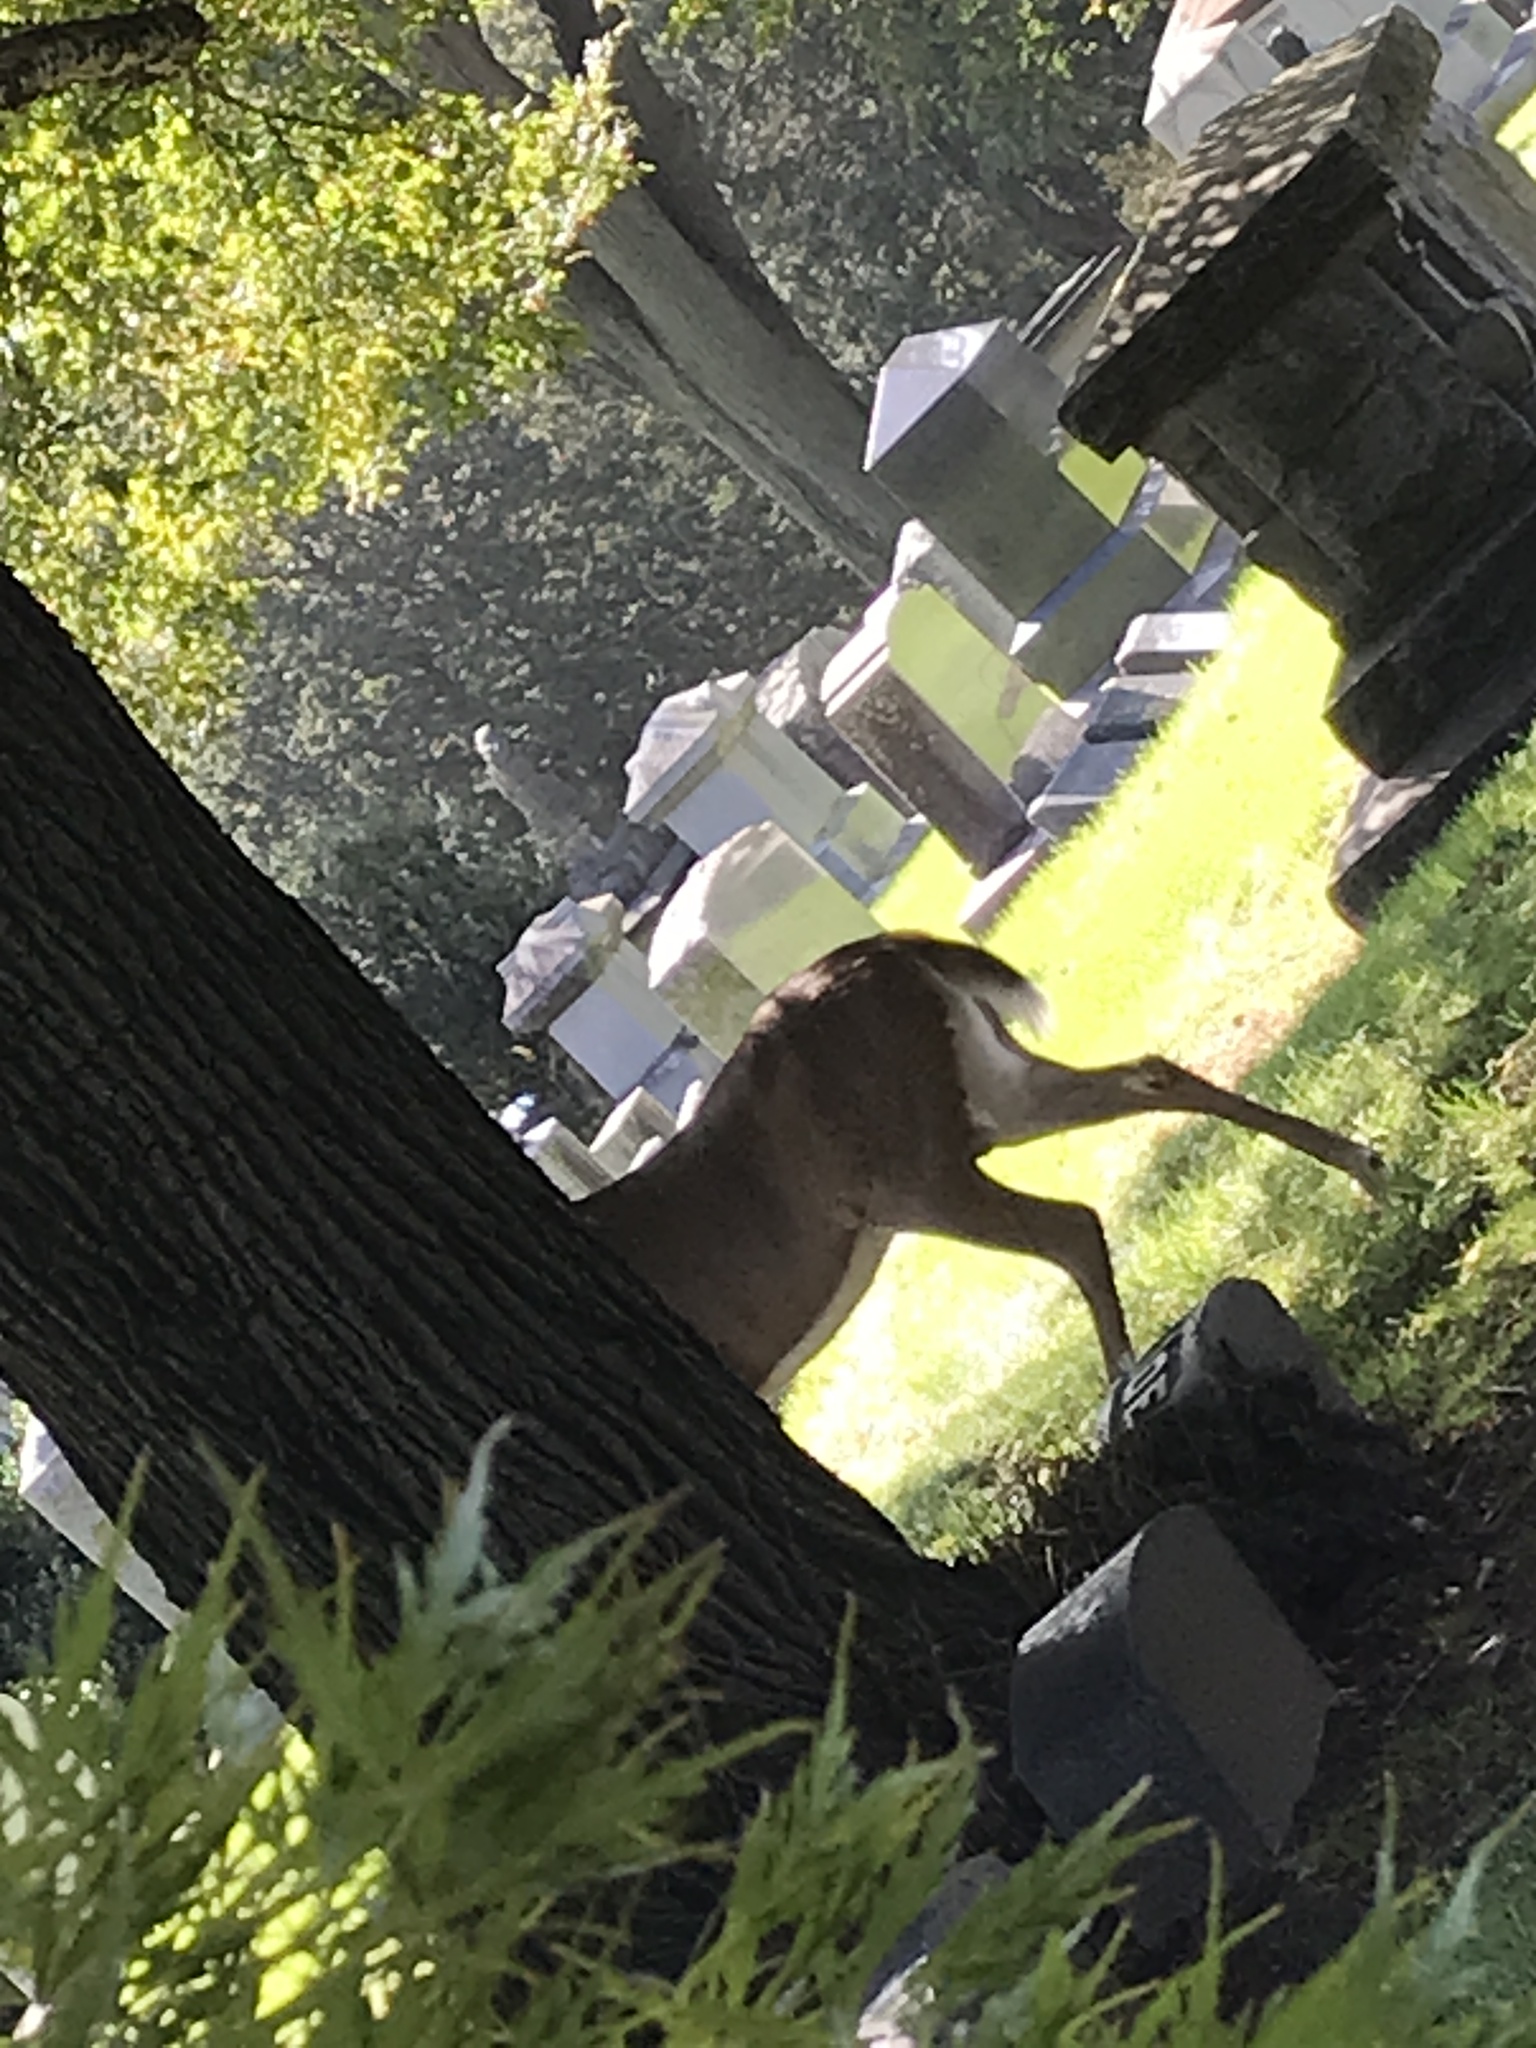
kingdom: Animalia
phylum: Chordata
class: Mammalia
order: Artiodactyla
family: Cervidae
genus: Odocoileus
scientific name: Odocoileus virginianus
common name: White-tailed deer
